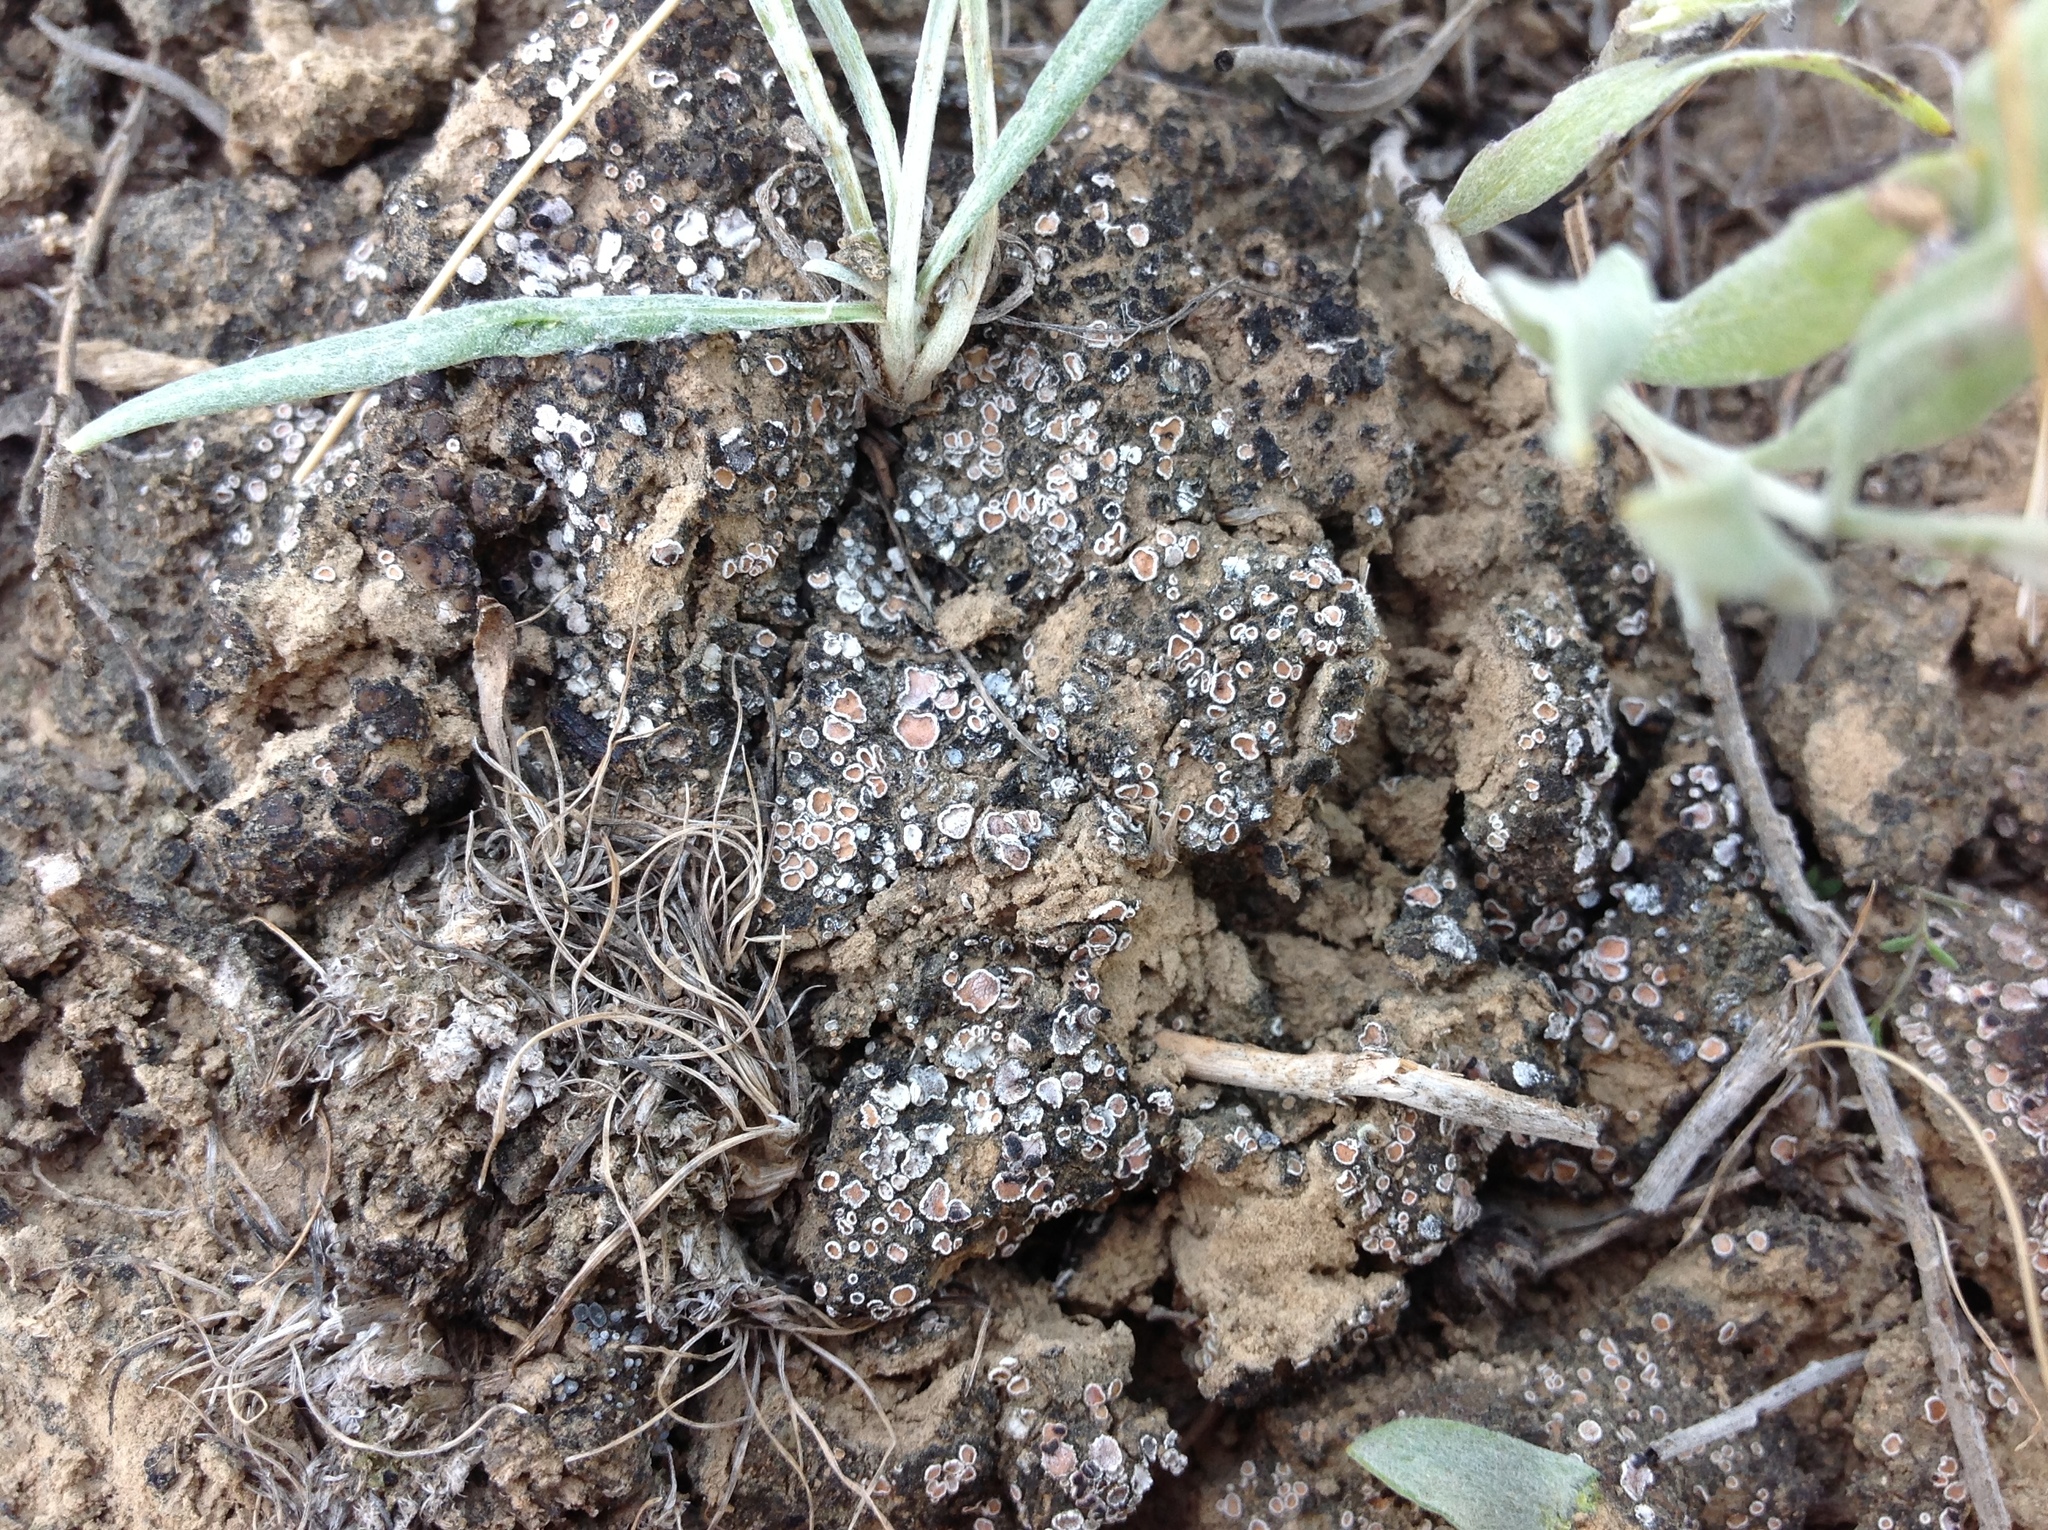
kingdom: Fungi
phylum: Ascomycota
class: Lecanoromycetes
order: Lecanorales
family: Psoraceae
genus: Psora
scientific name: Psora decipiens
